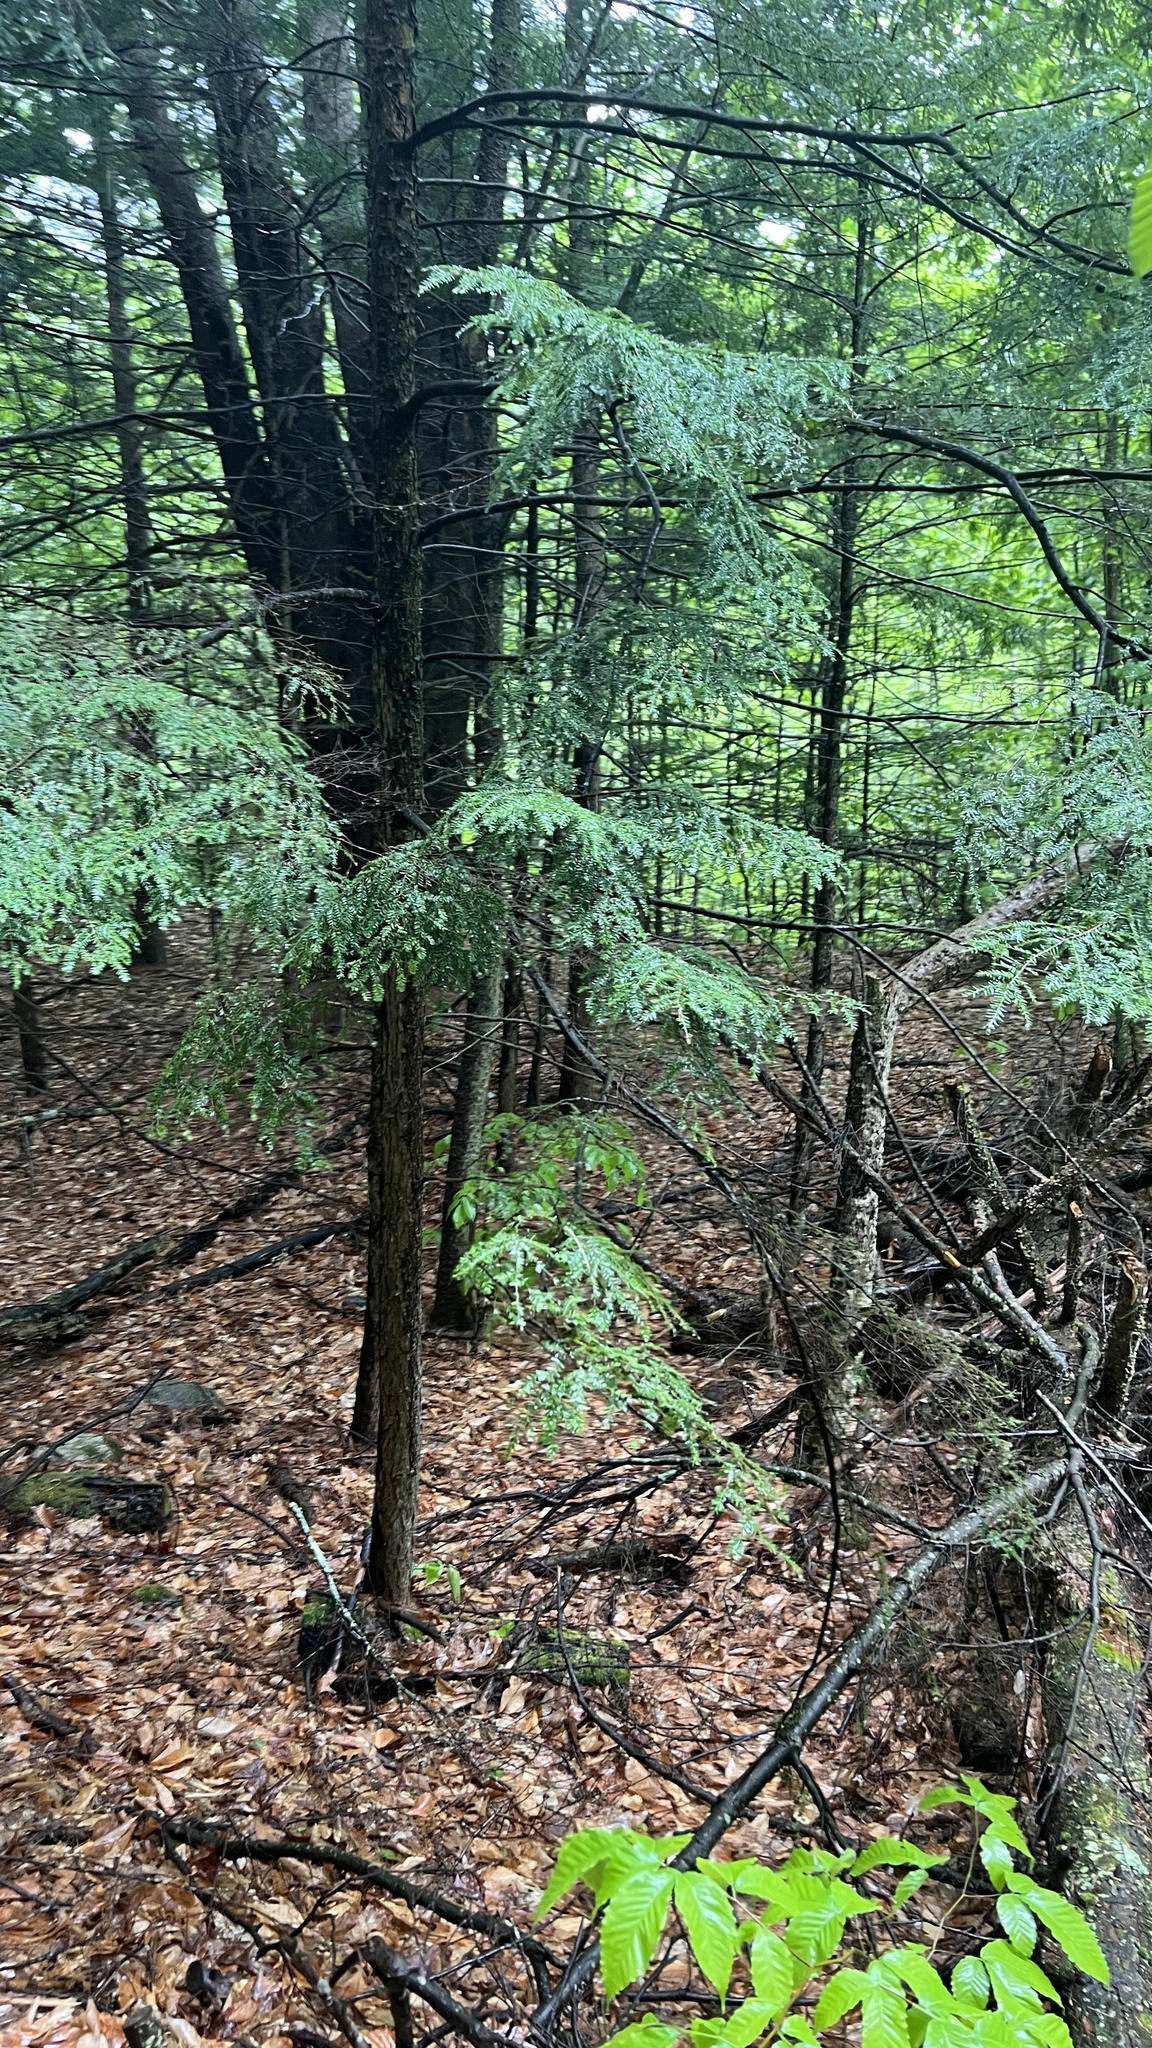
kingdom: Plantae
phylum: Tracheophyta
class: Pinopsida
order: Pinales
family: Pinaceae
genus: Tsuga
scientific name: Tsuga canadensis
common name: Eastern hemlock
